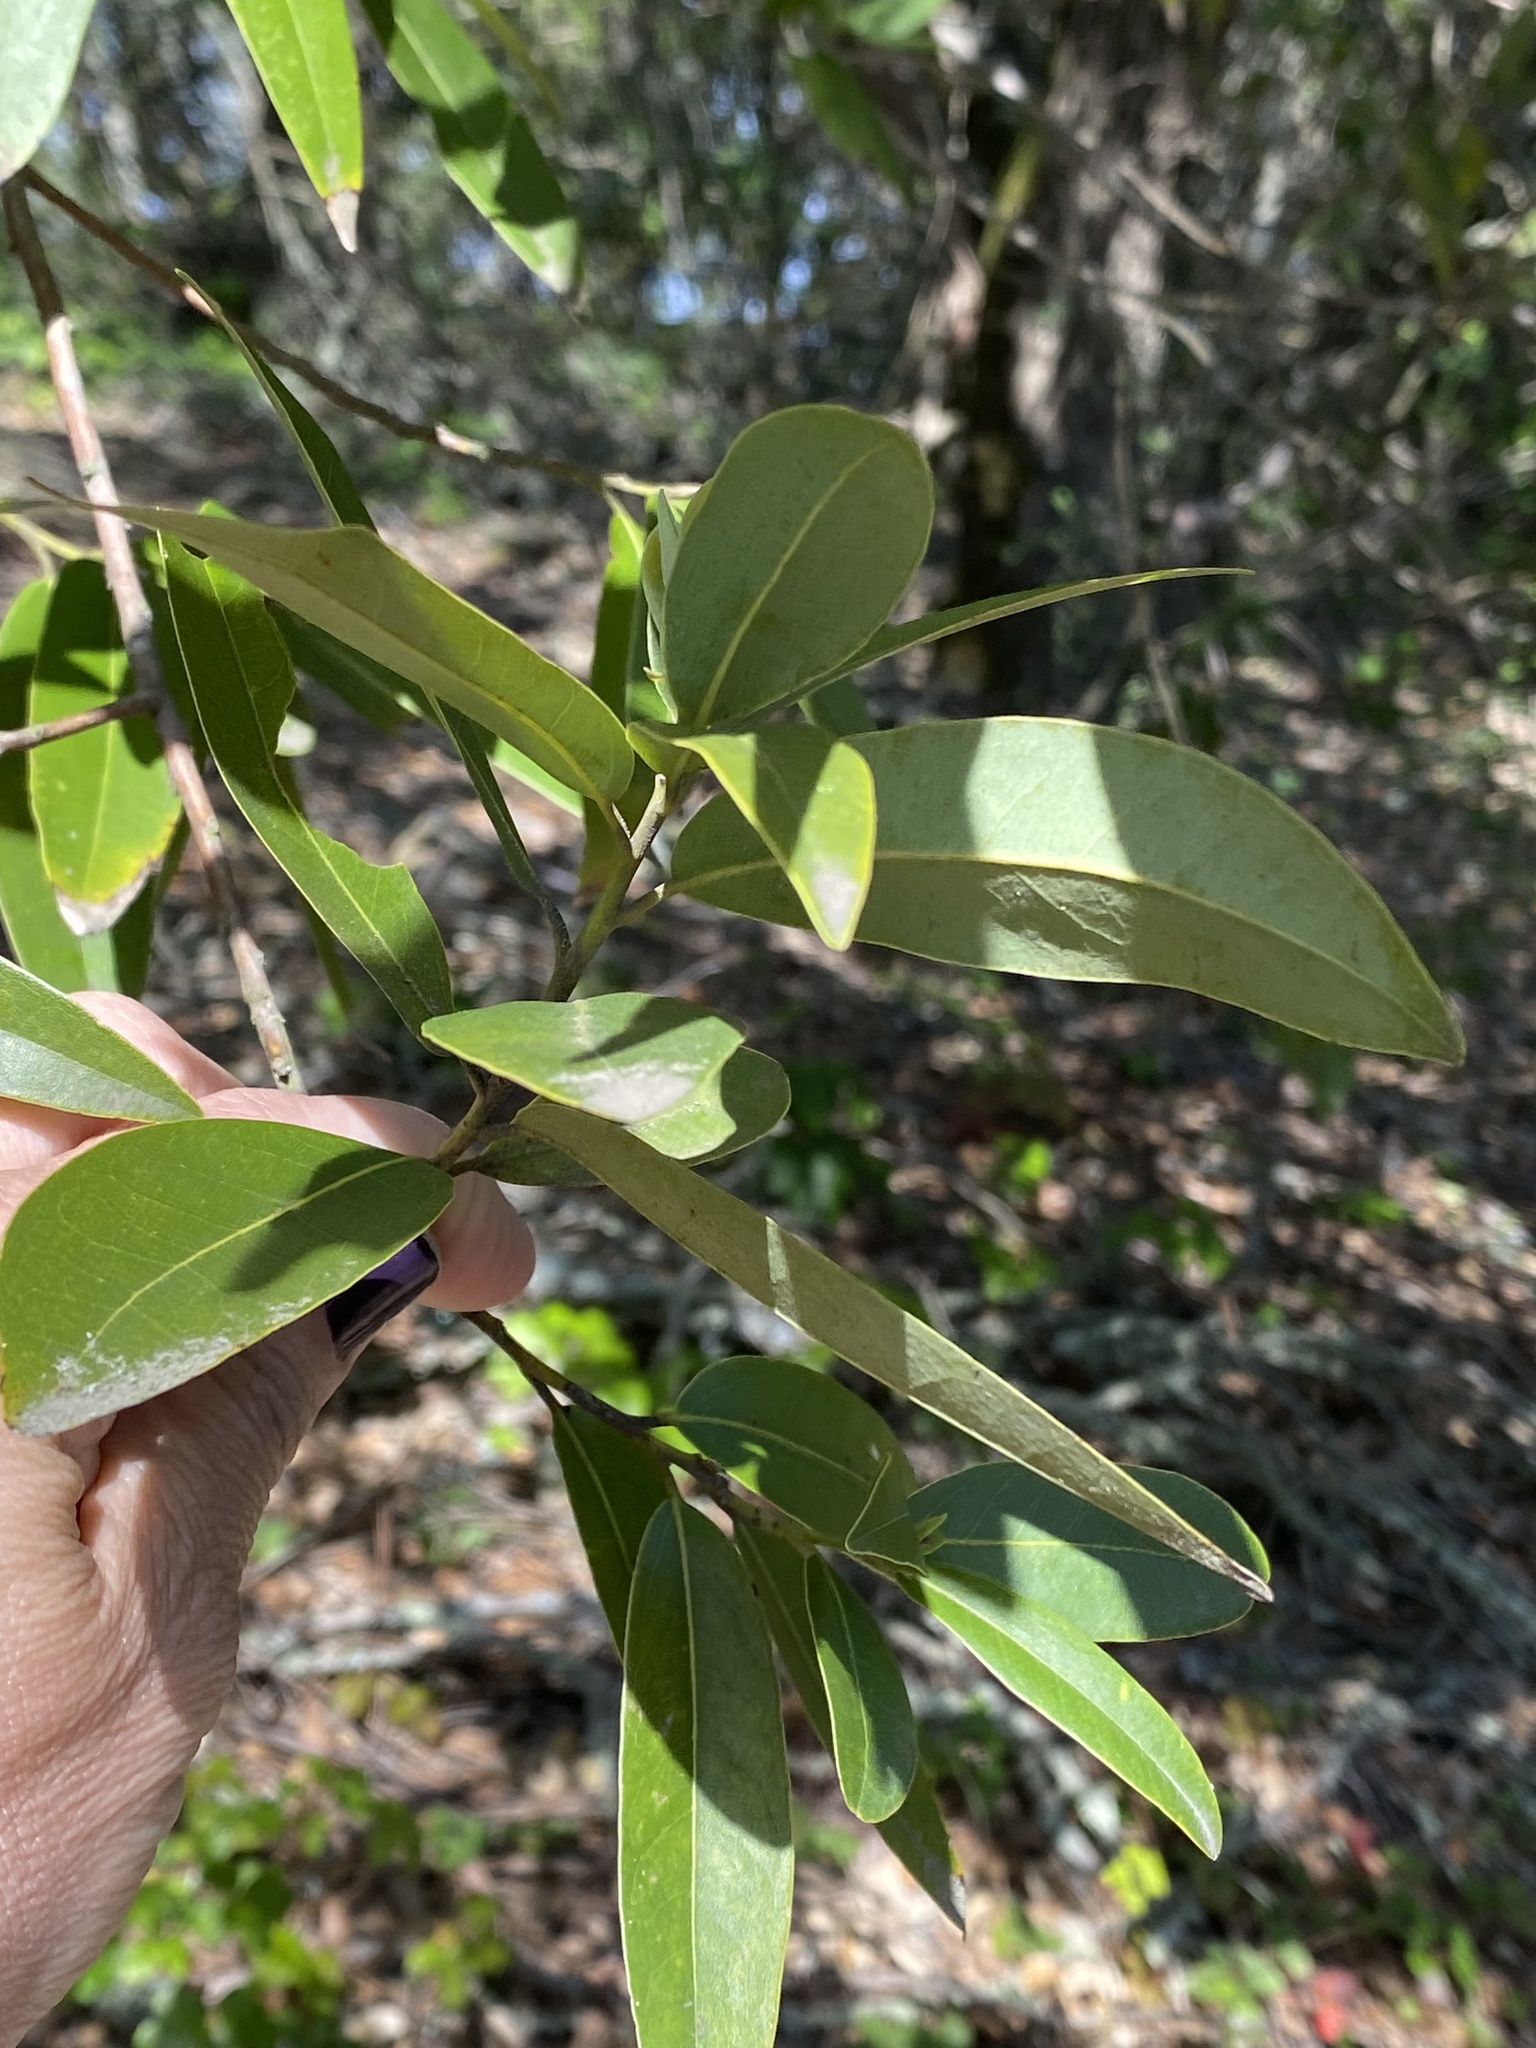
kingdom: Plantae
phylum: Tracheophyta
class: Magnoliopsida
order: Laurales
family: Lauraceae
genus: Umbellularia
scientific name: Umbellularia californica
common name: California bay
